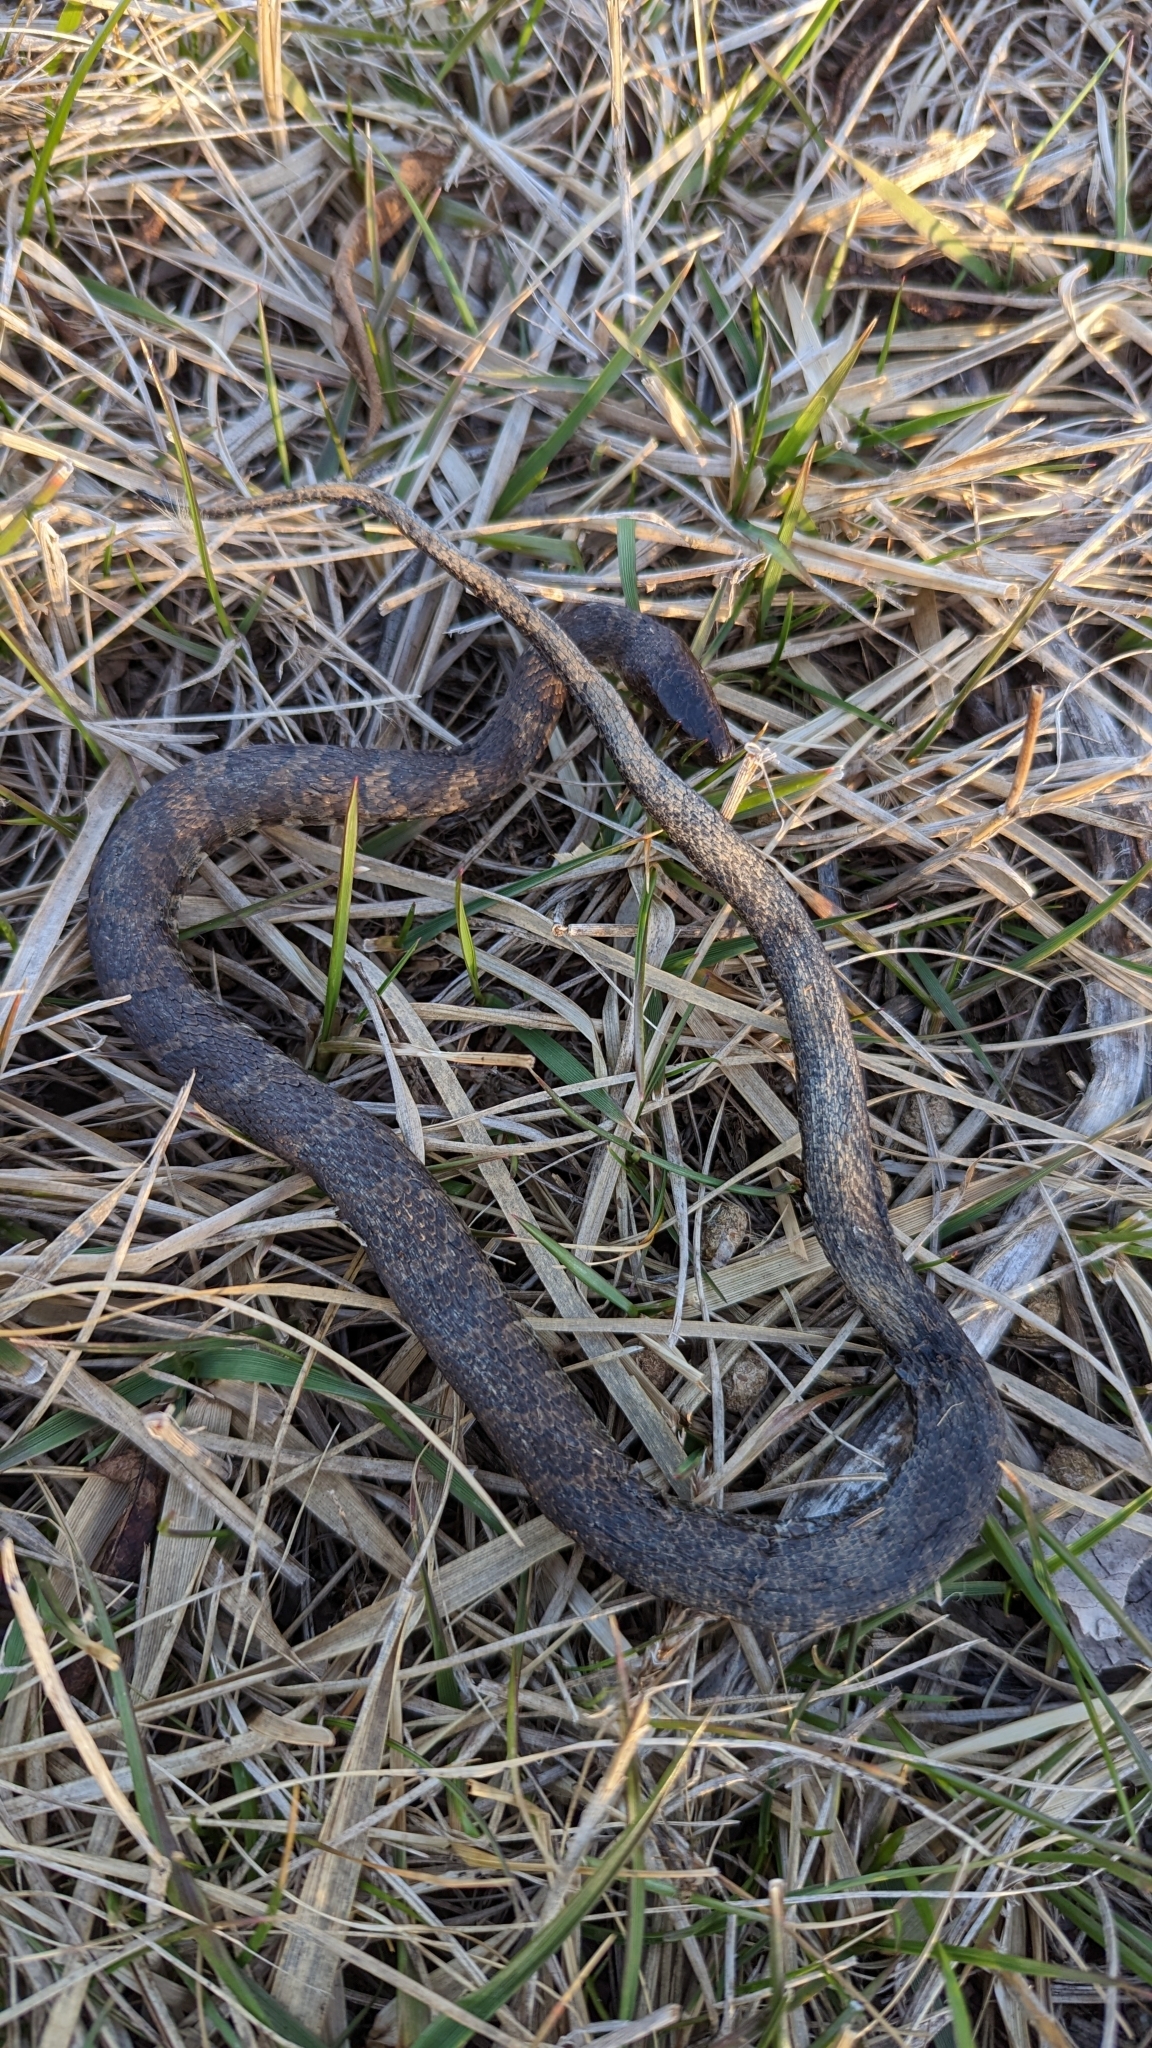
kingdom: Animalia
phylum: Chordata
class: Squamata
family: Colubridae
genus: Nerodia
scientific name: Nerodia sipedon
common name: Northern water snake
